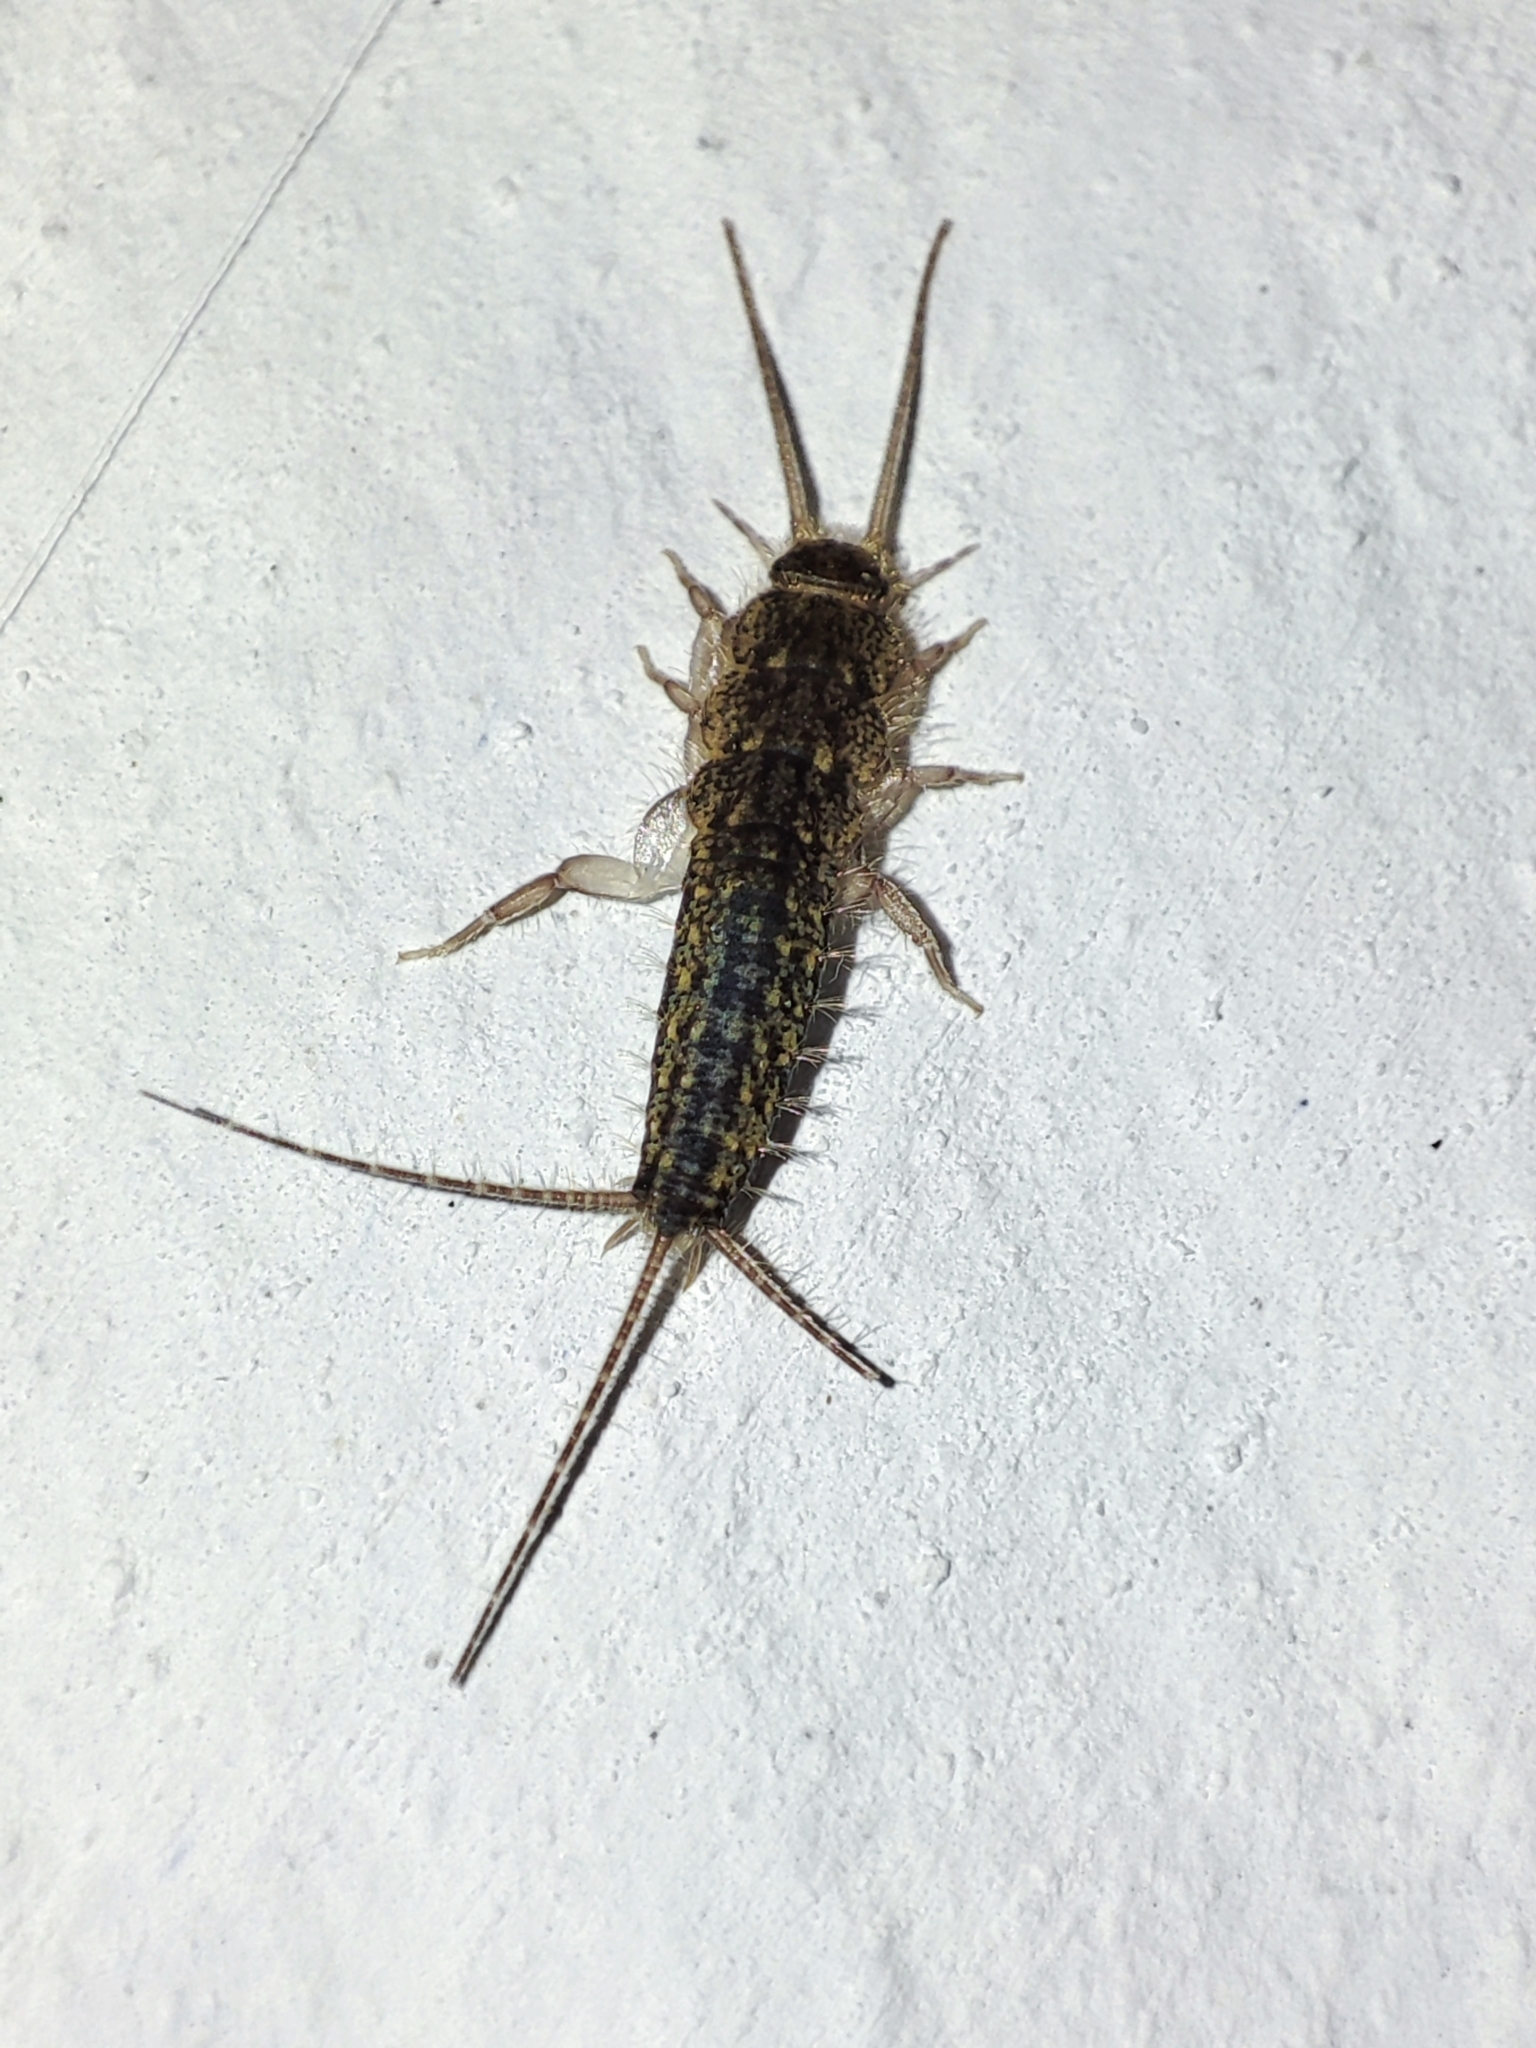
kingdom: Animalia
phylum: Arthropoda
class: Insecta
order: Zygentoma
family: Lepismatidae
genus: Ctenolepisma
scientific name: Ctenolepisma lineata
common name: Four-lined silverfish
